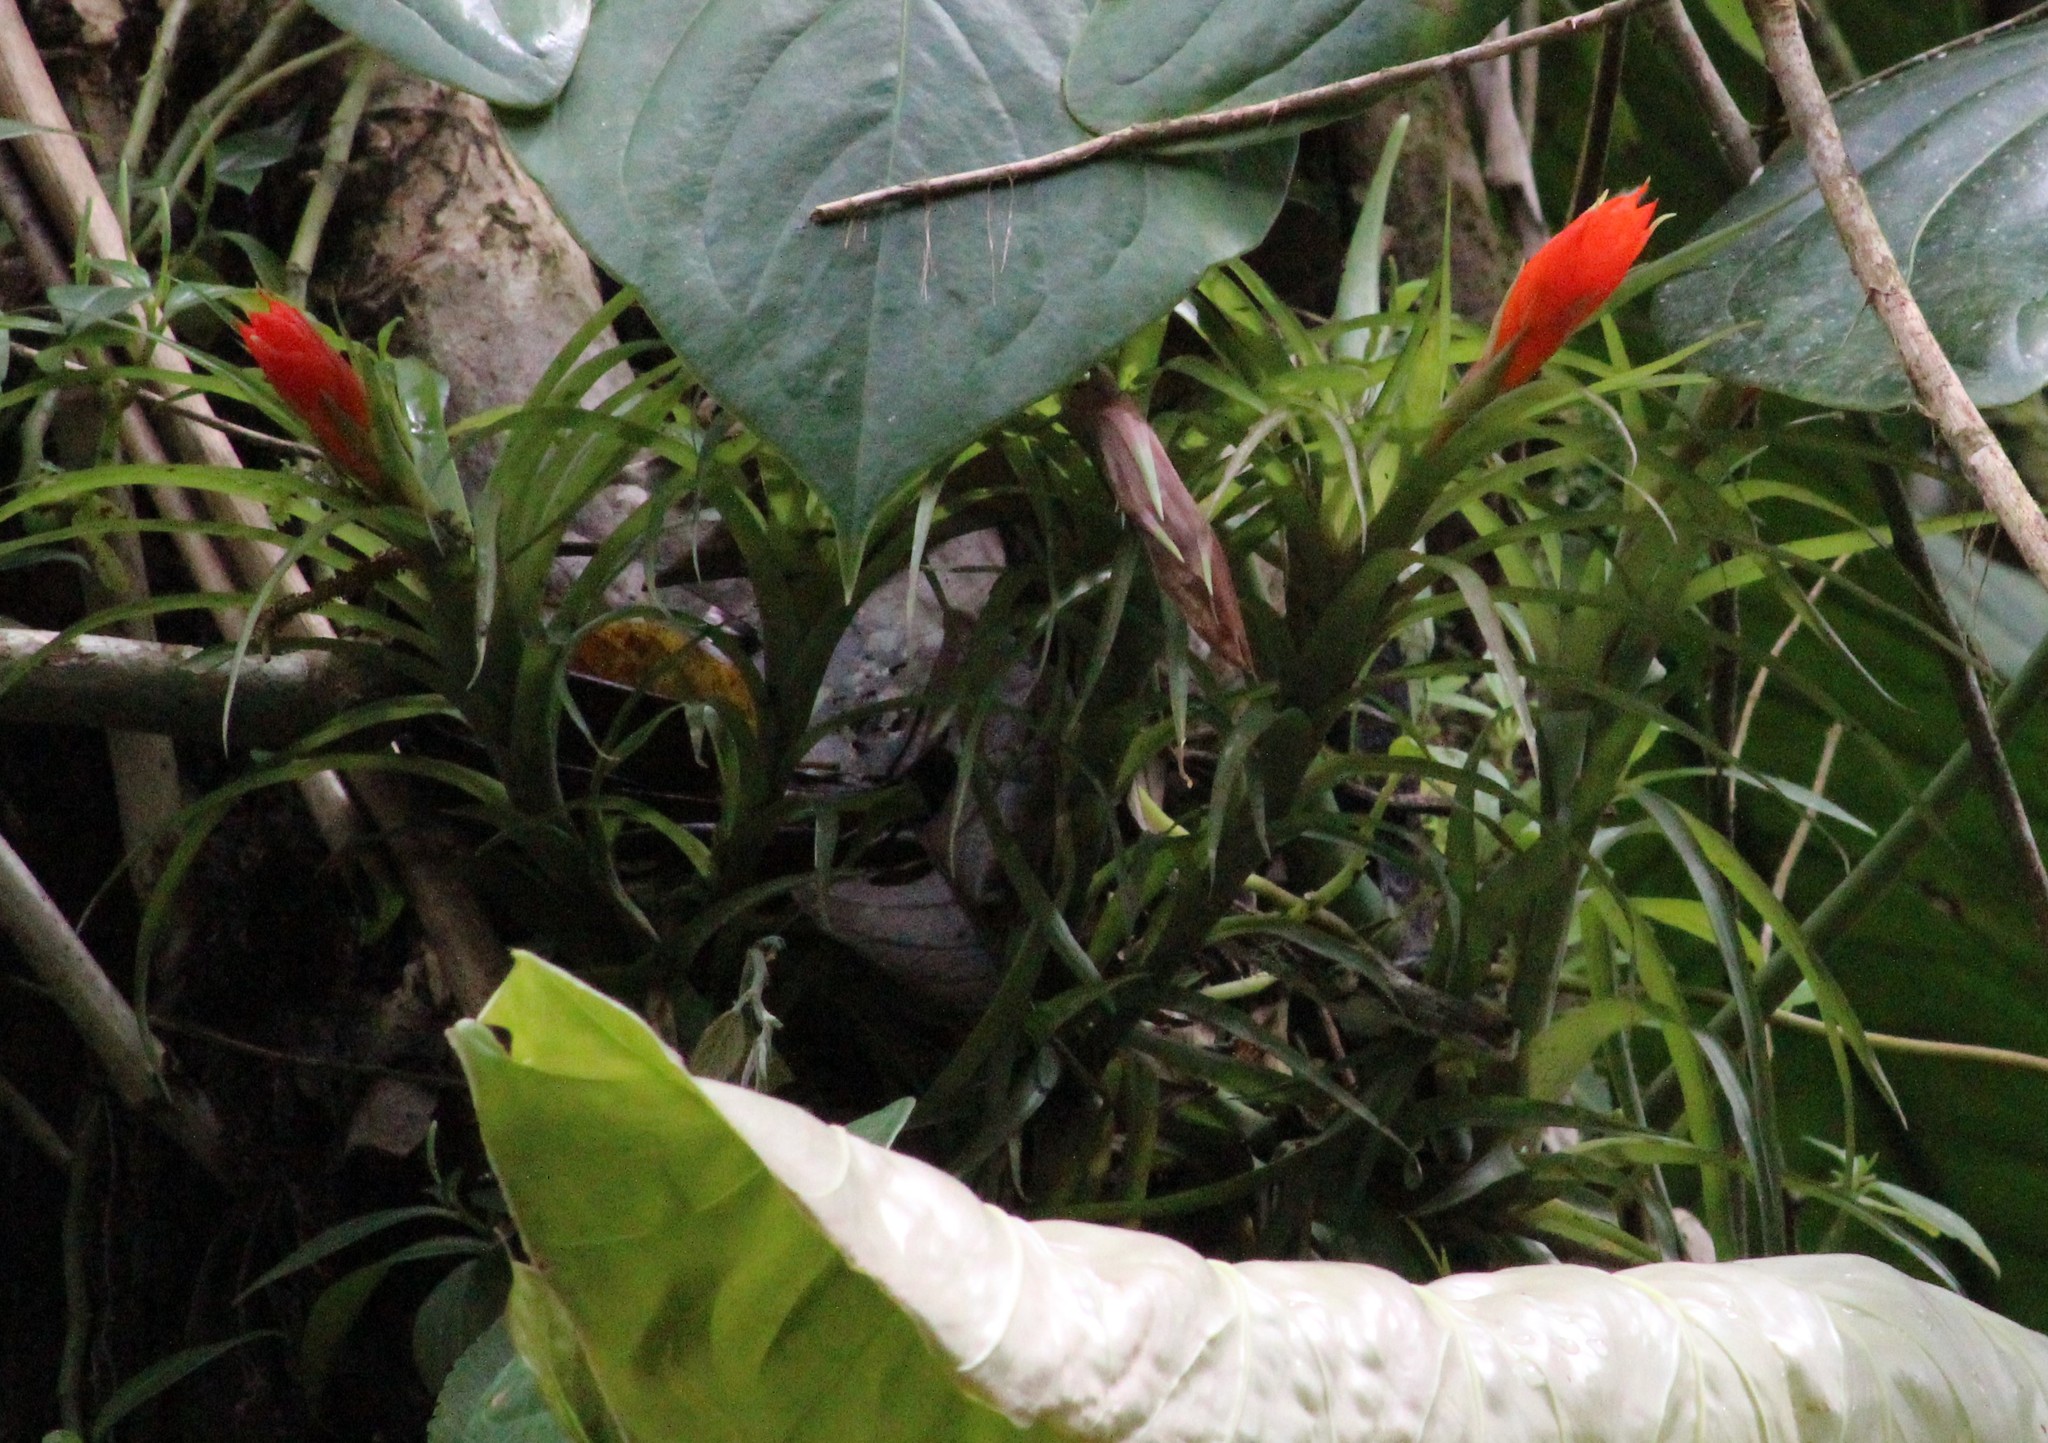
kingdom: Plantae
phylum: Tracheophyta
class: Liliopsida
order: Poales
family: Bromeliaceae
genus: Guzmania
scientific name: Guzmania angustifolia
